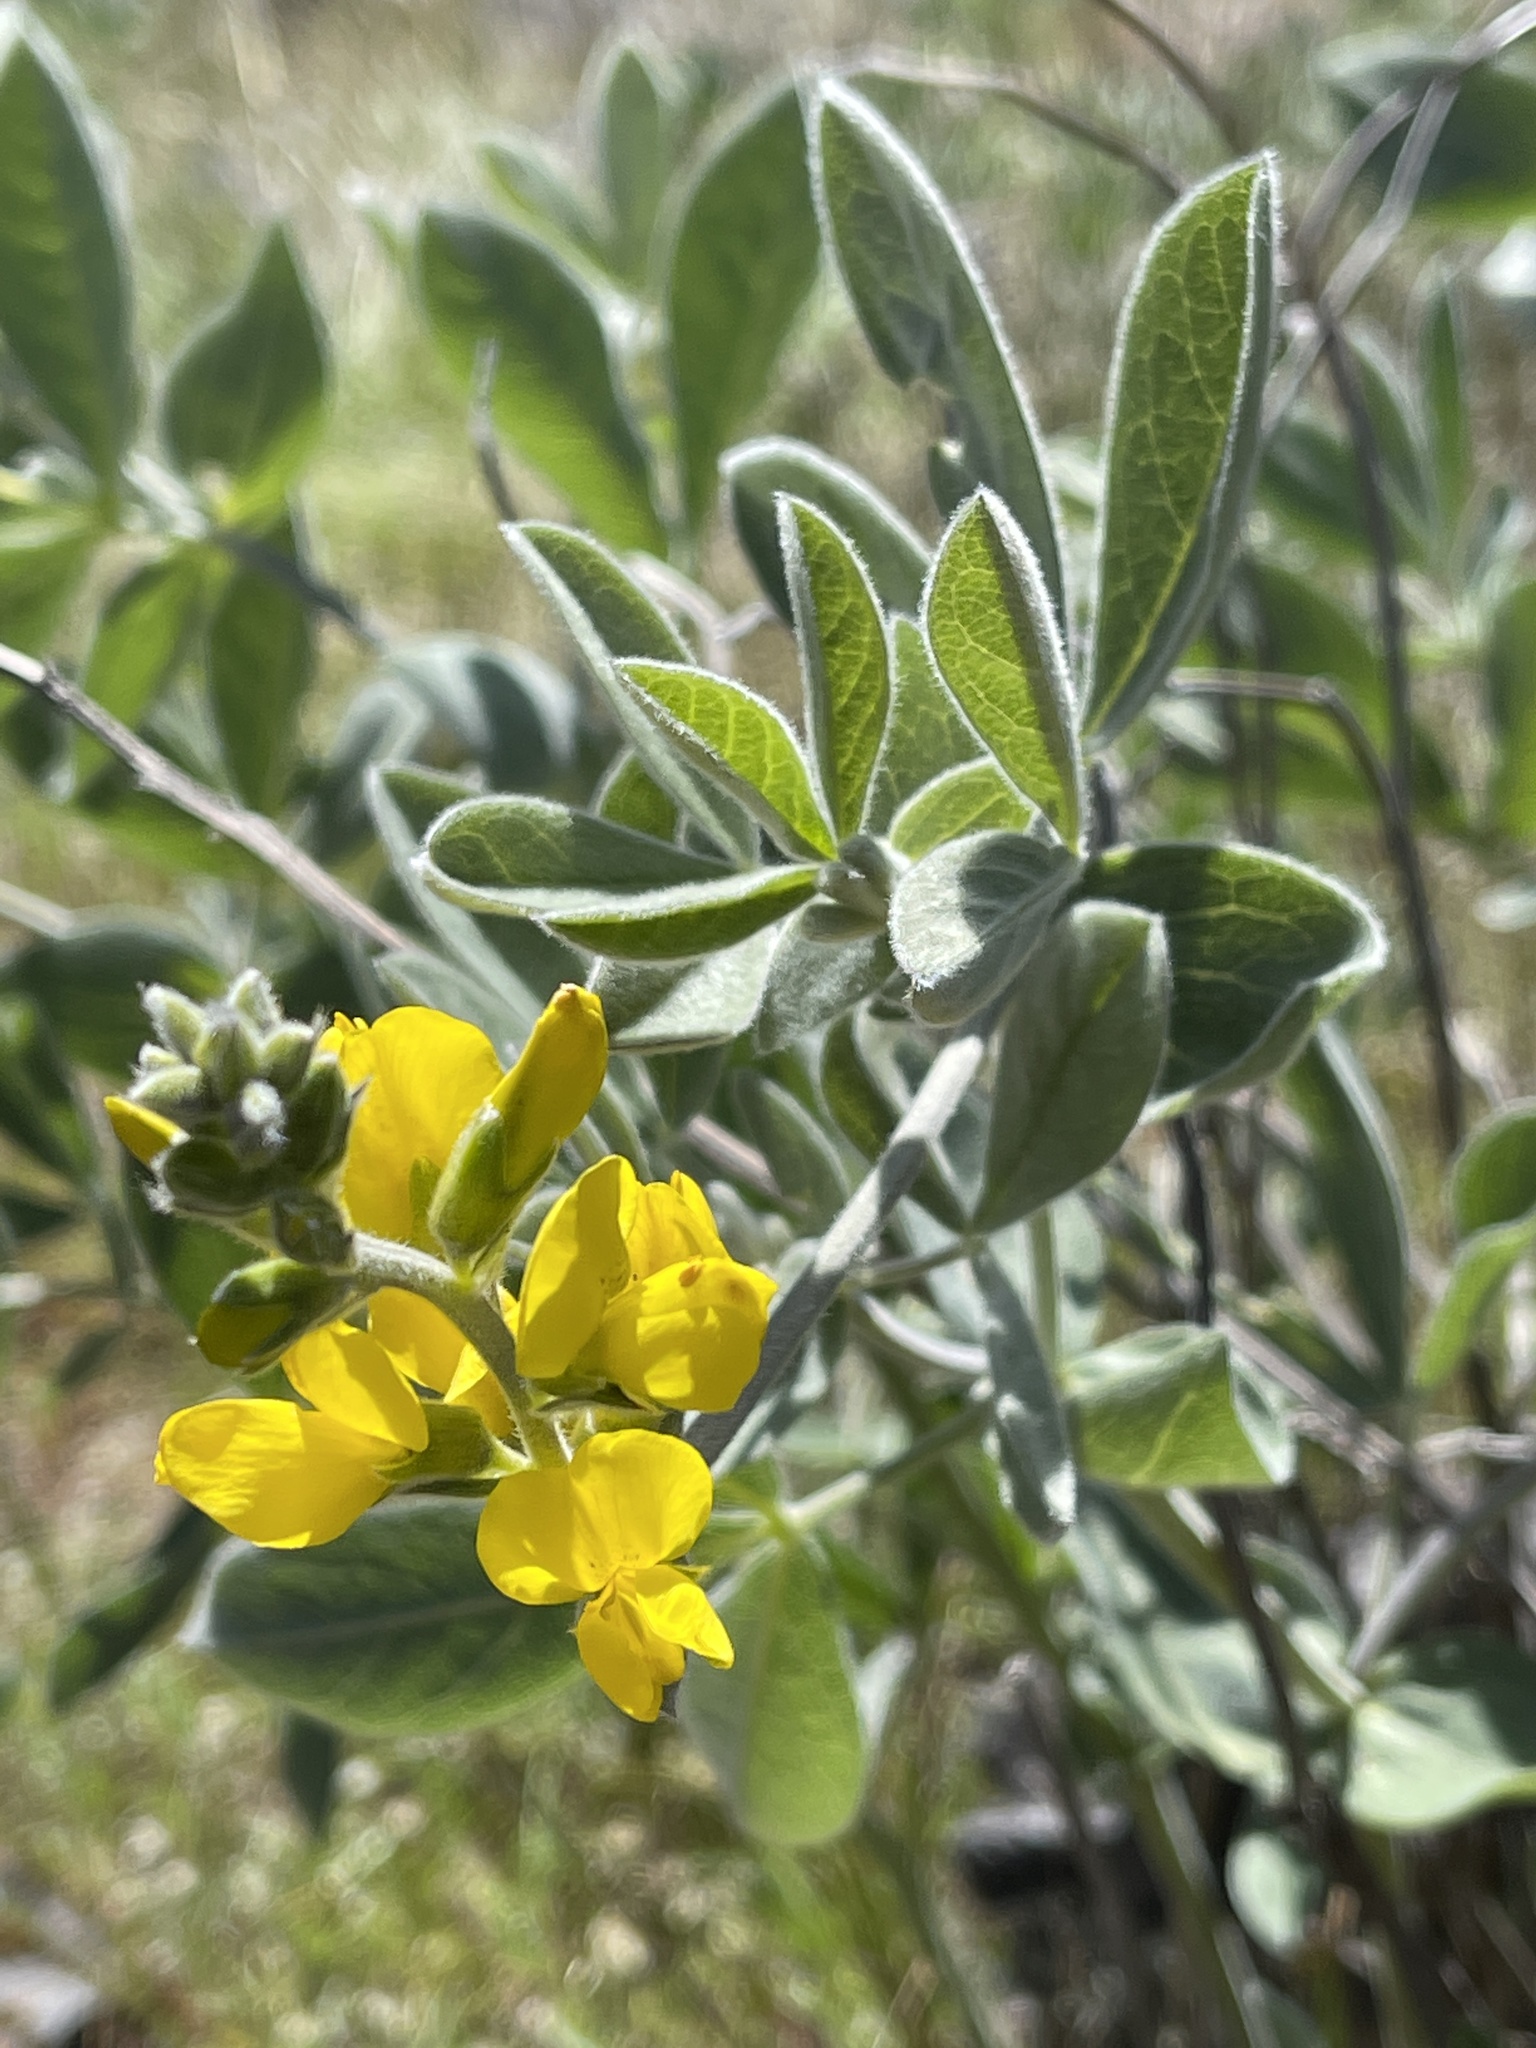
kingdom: Plantae
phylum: Tracheophyta
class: Magnoliopsida
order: Fabales
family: Fabaceae
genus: Thermopsis
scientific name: Thermopsis californica
